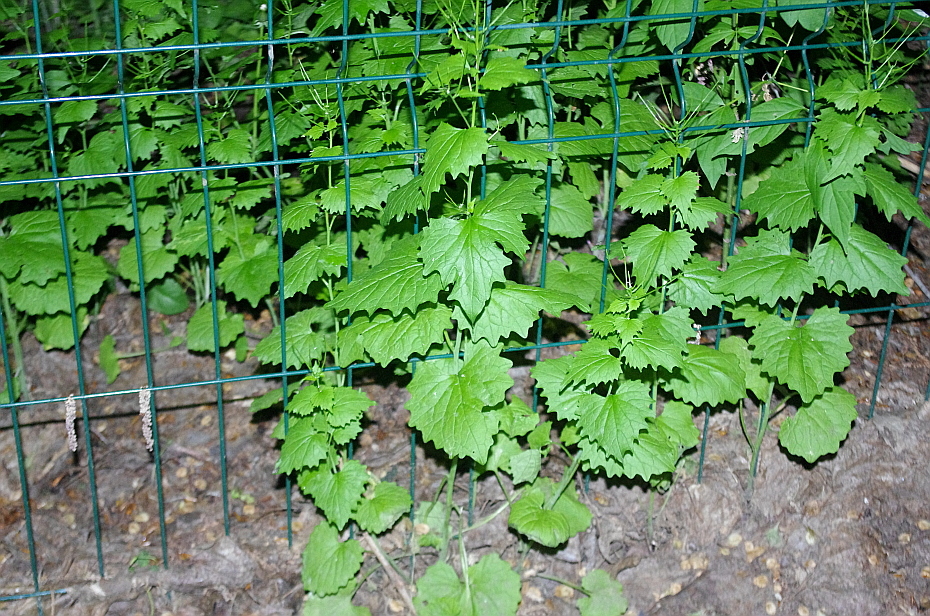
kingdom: Plantae
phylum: Tracheophyta
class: Magnoliopsida
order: Brassicales
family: Brassicaceae
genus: Alliaria
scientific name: Alliaria petiolata
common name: Garlic mustard
